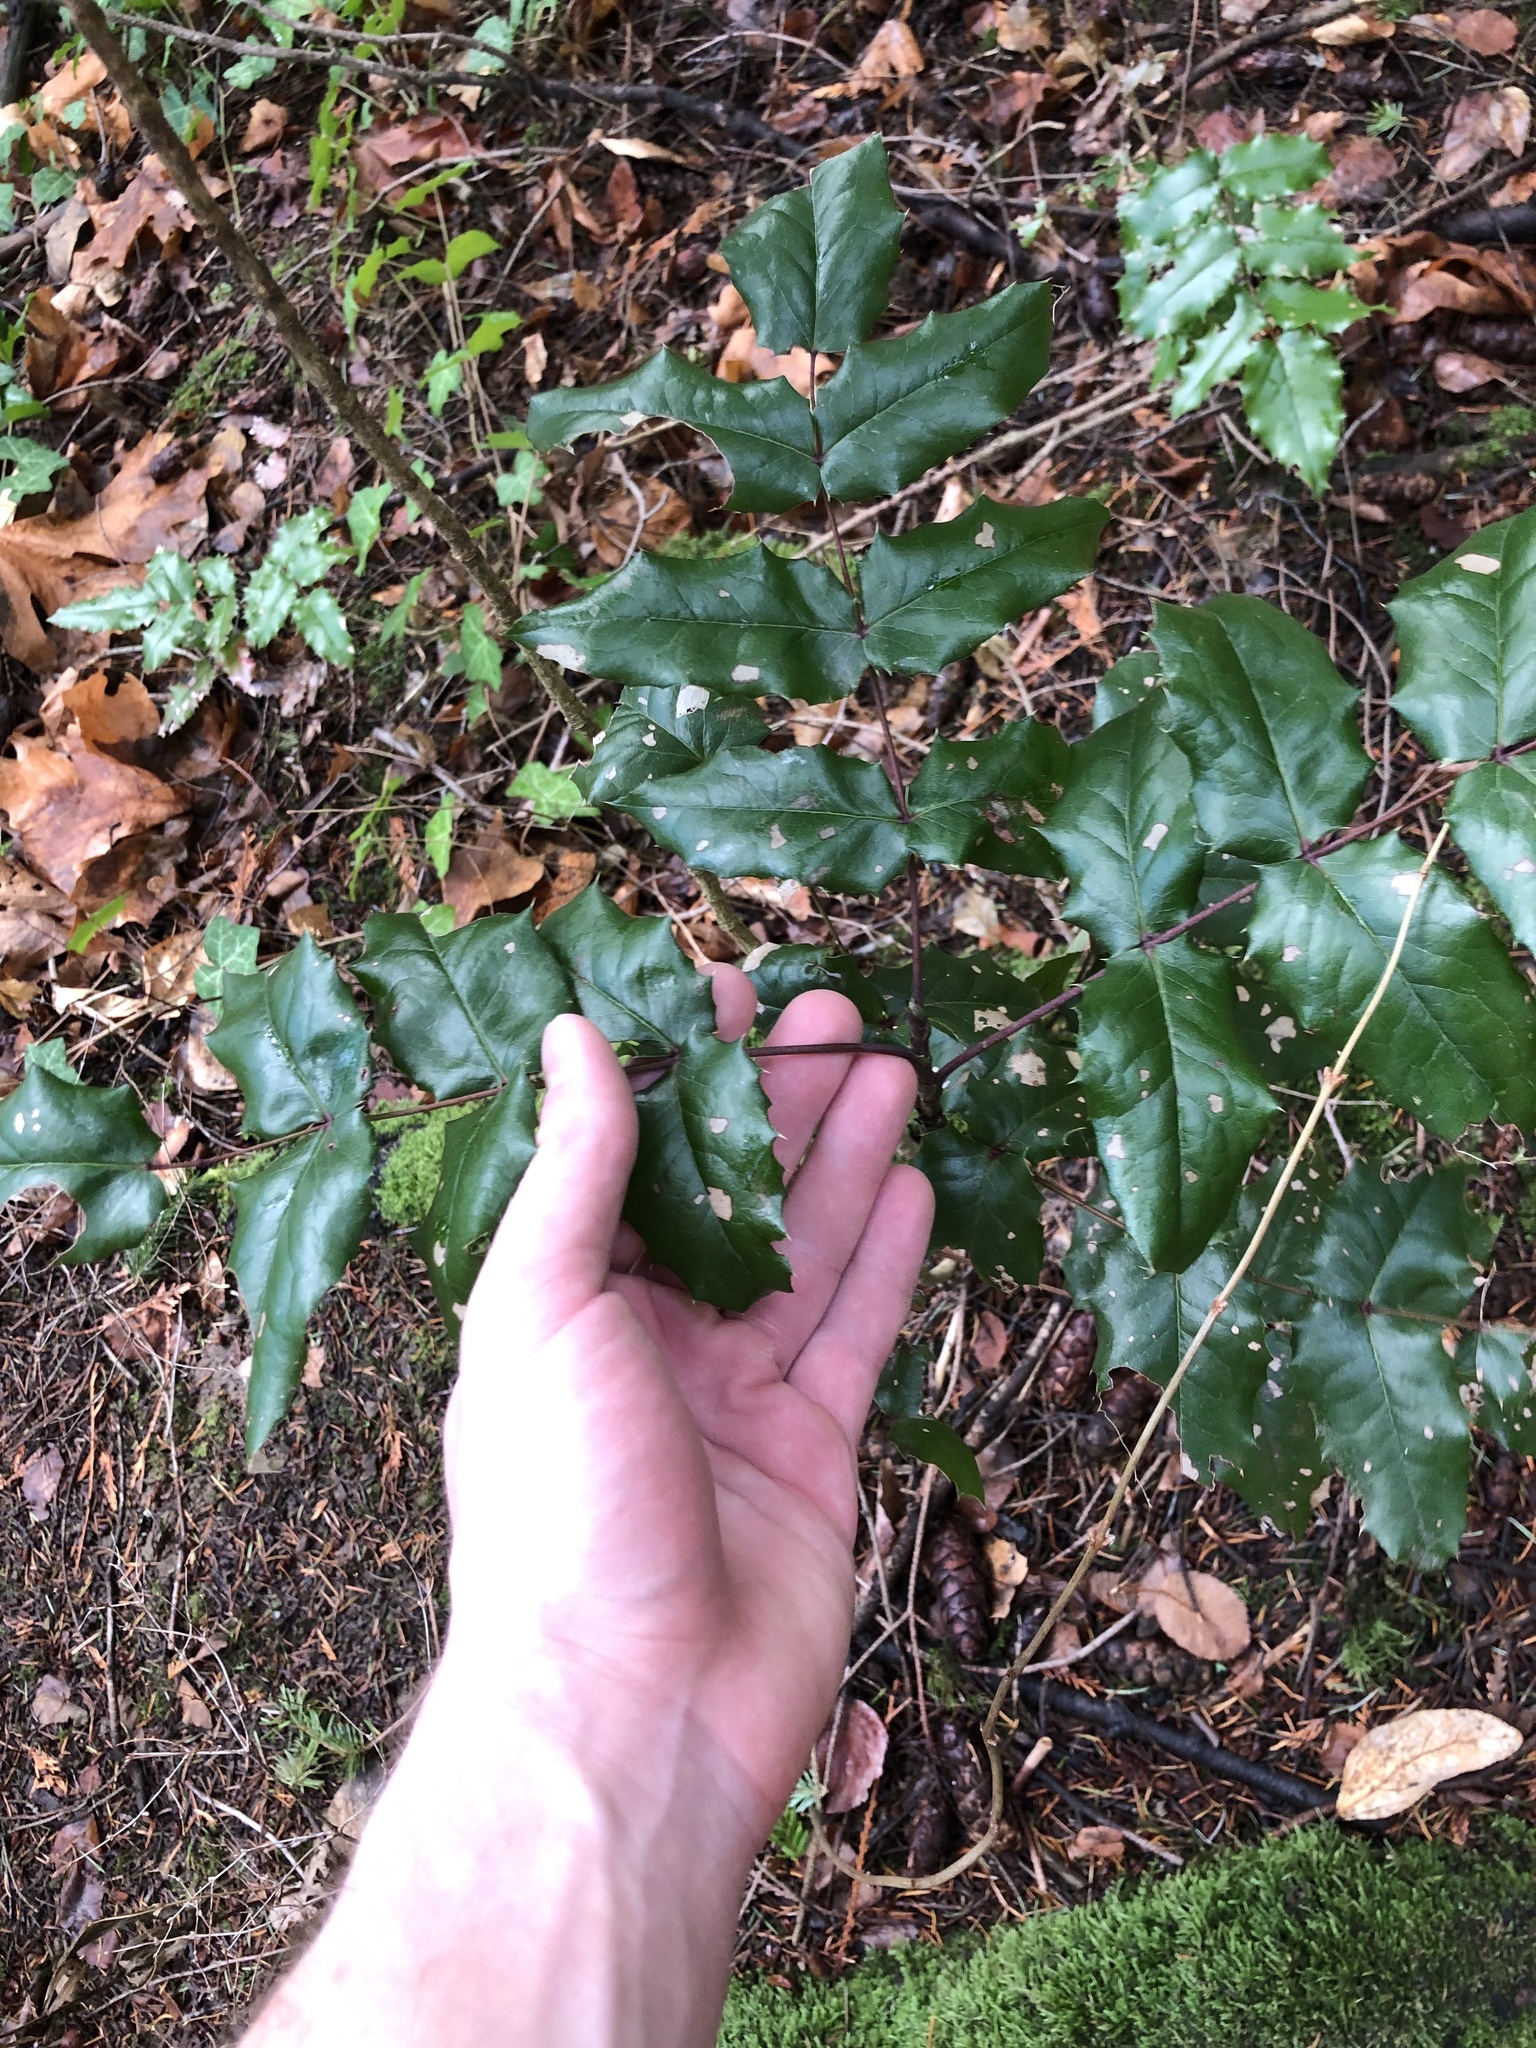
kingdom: Plantae
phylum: Tracheophyta
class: Magnoliopsida
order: Ranunculales
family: Berberidaceae
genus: Mahonia
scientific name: Mahonia aquifolium
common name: Oregon-grape
